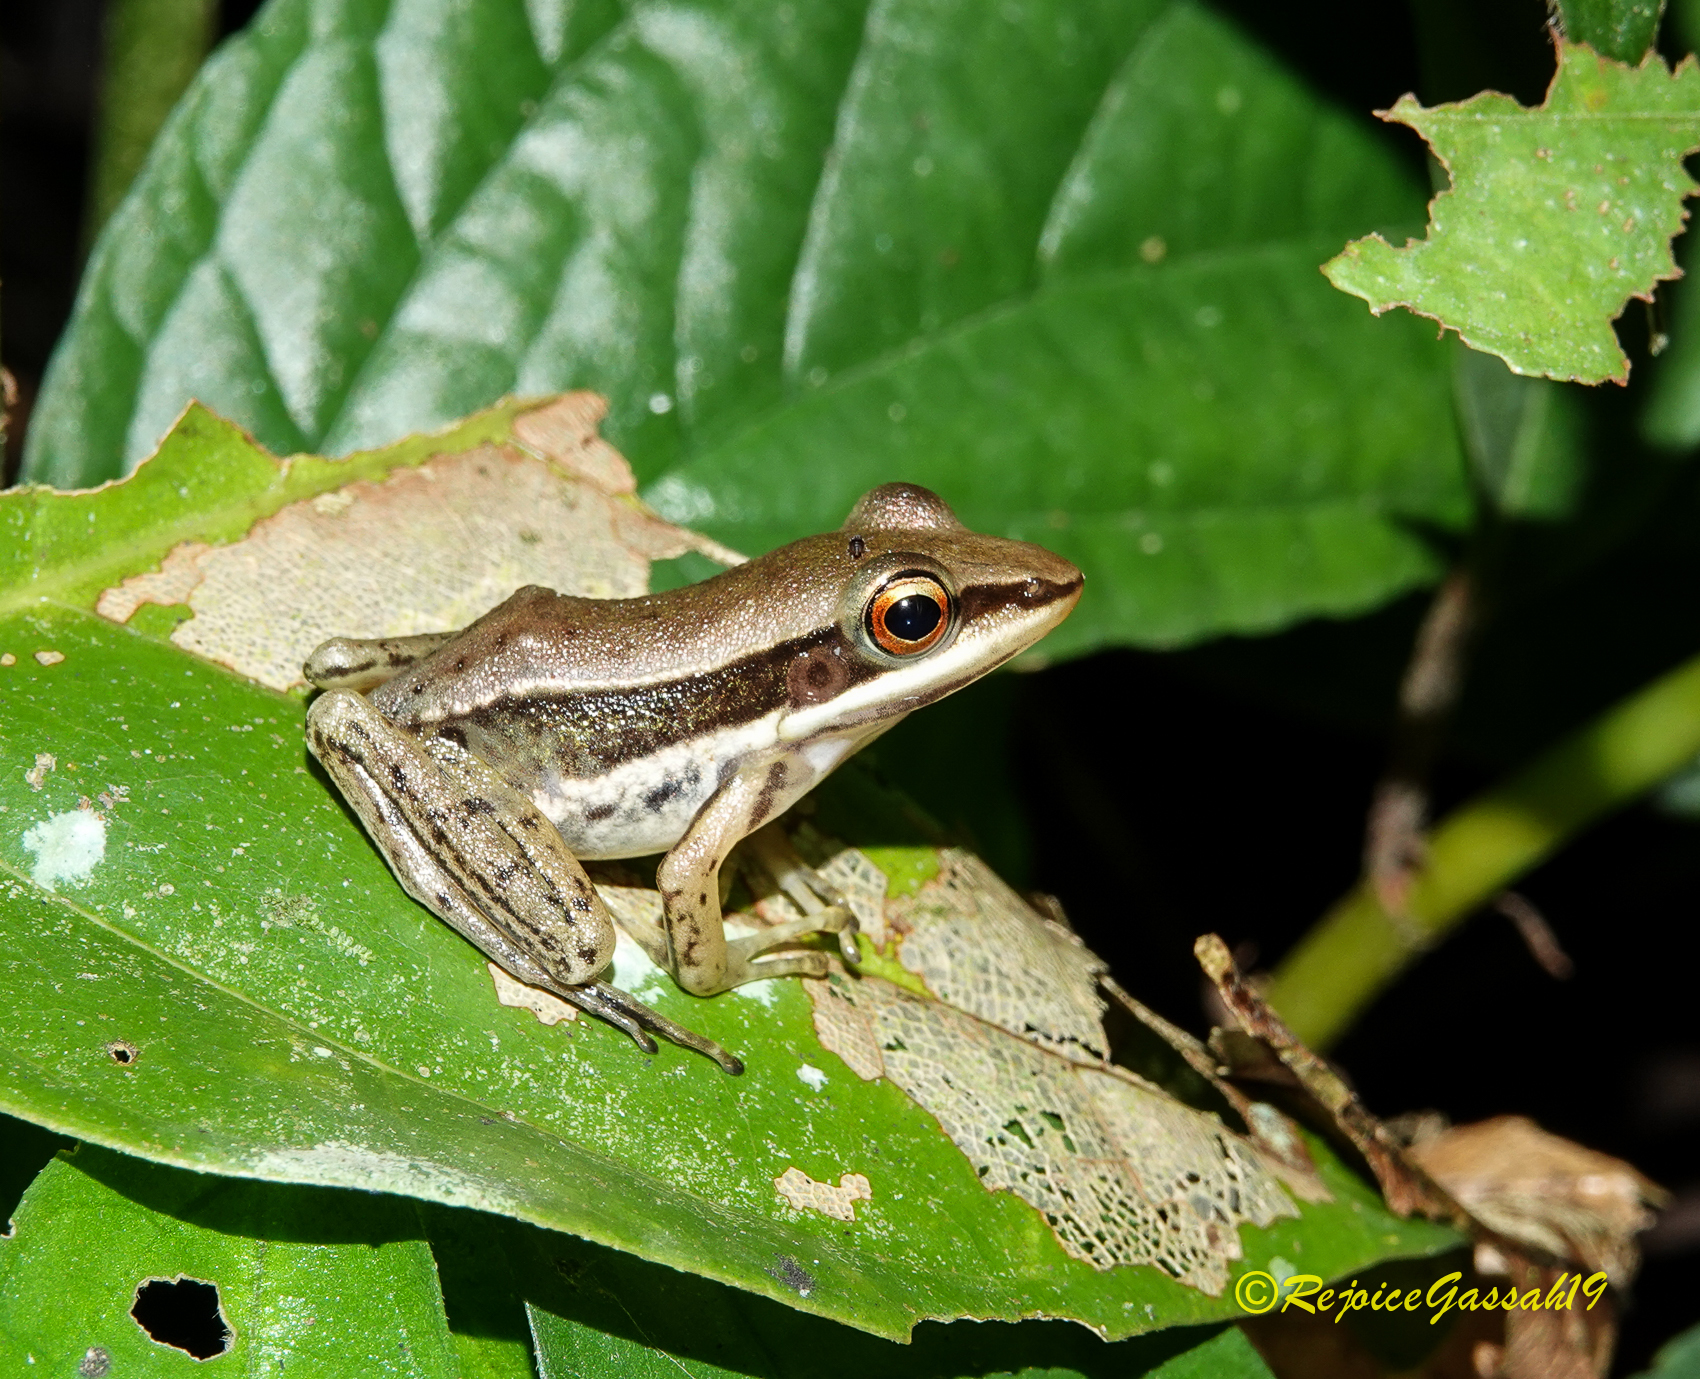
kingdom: Animalia
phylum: Chordata
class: Amphibia
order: Anura
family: Ranidae
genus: Humerana
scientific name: Humerana humeralis
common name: Bhamo frog
